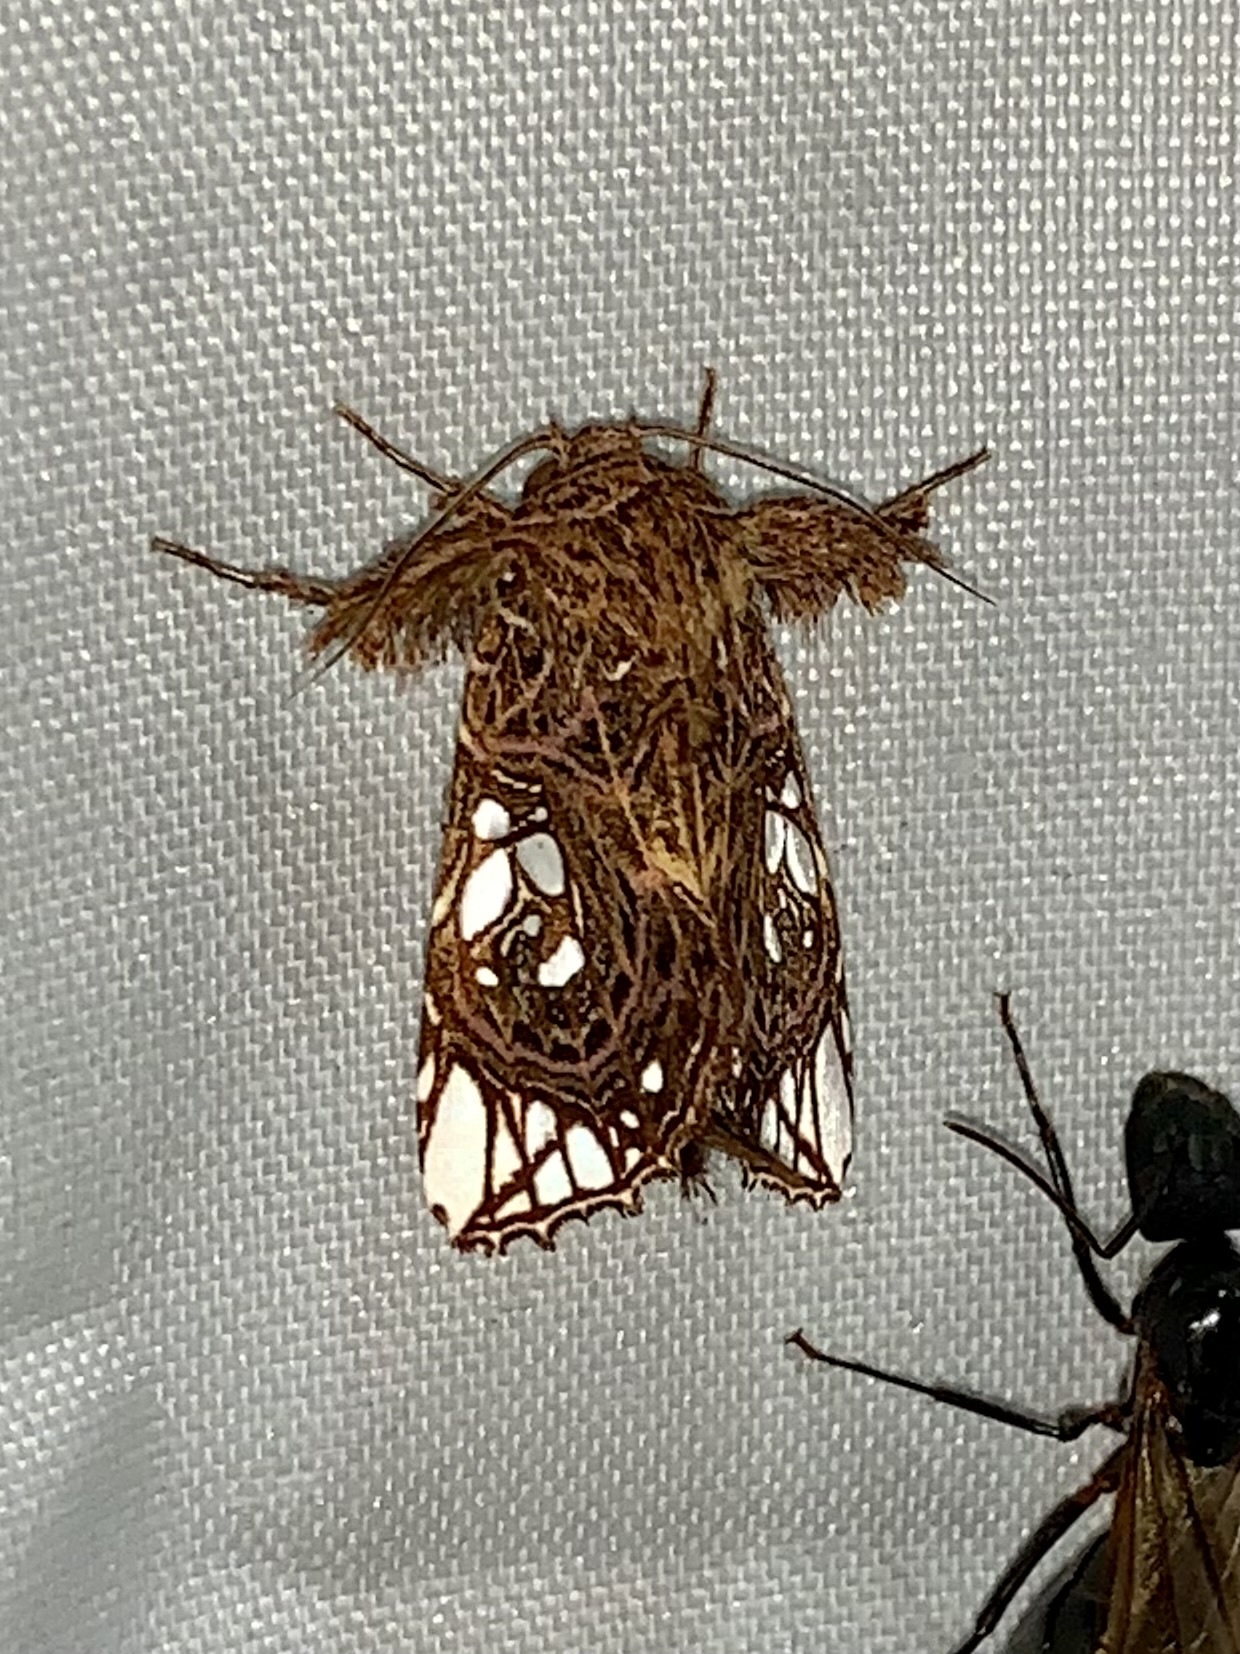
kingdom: Animalia
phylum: Arthropoda
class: Insecta
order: Lepidoptera
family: Noctuidae
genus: Argyrosticta
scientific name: Argyrosticta ditissima
